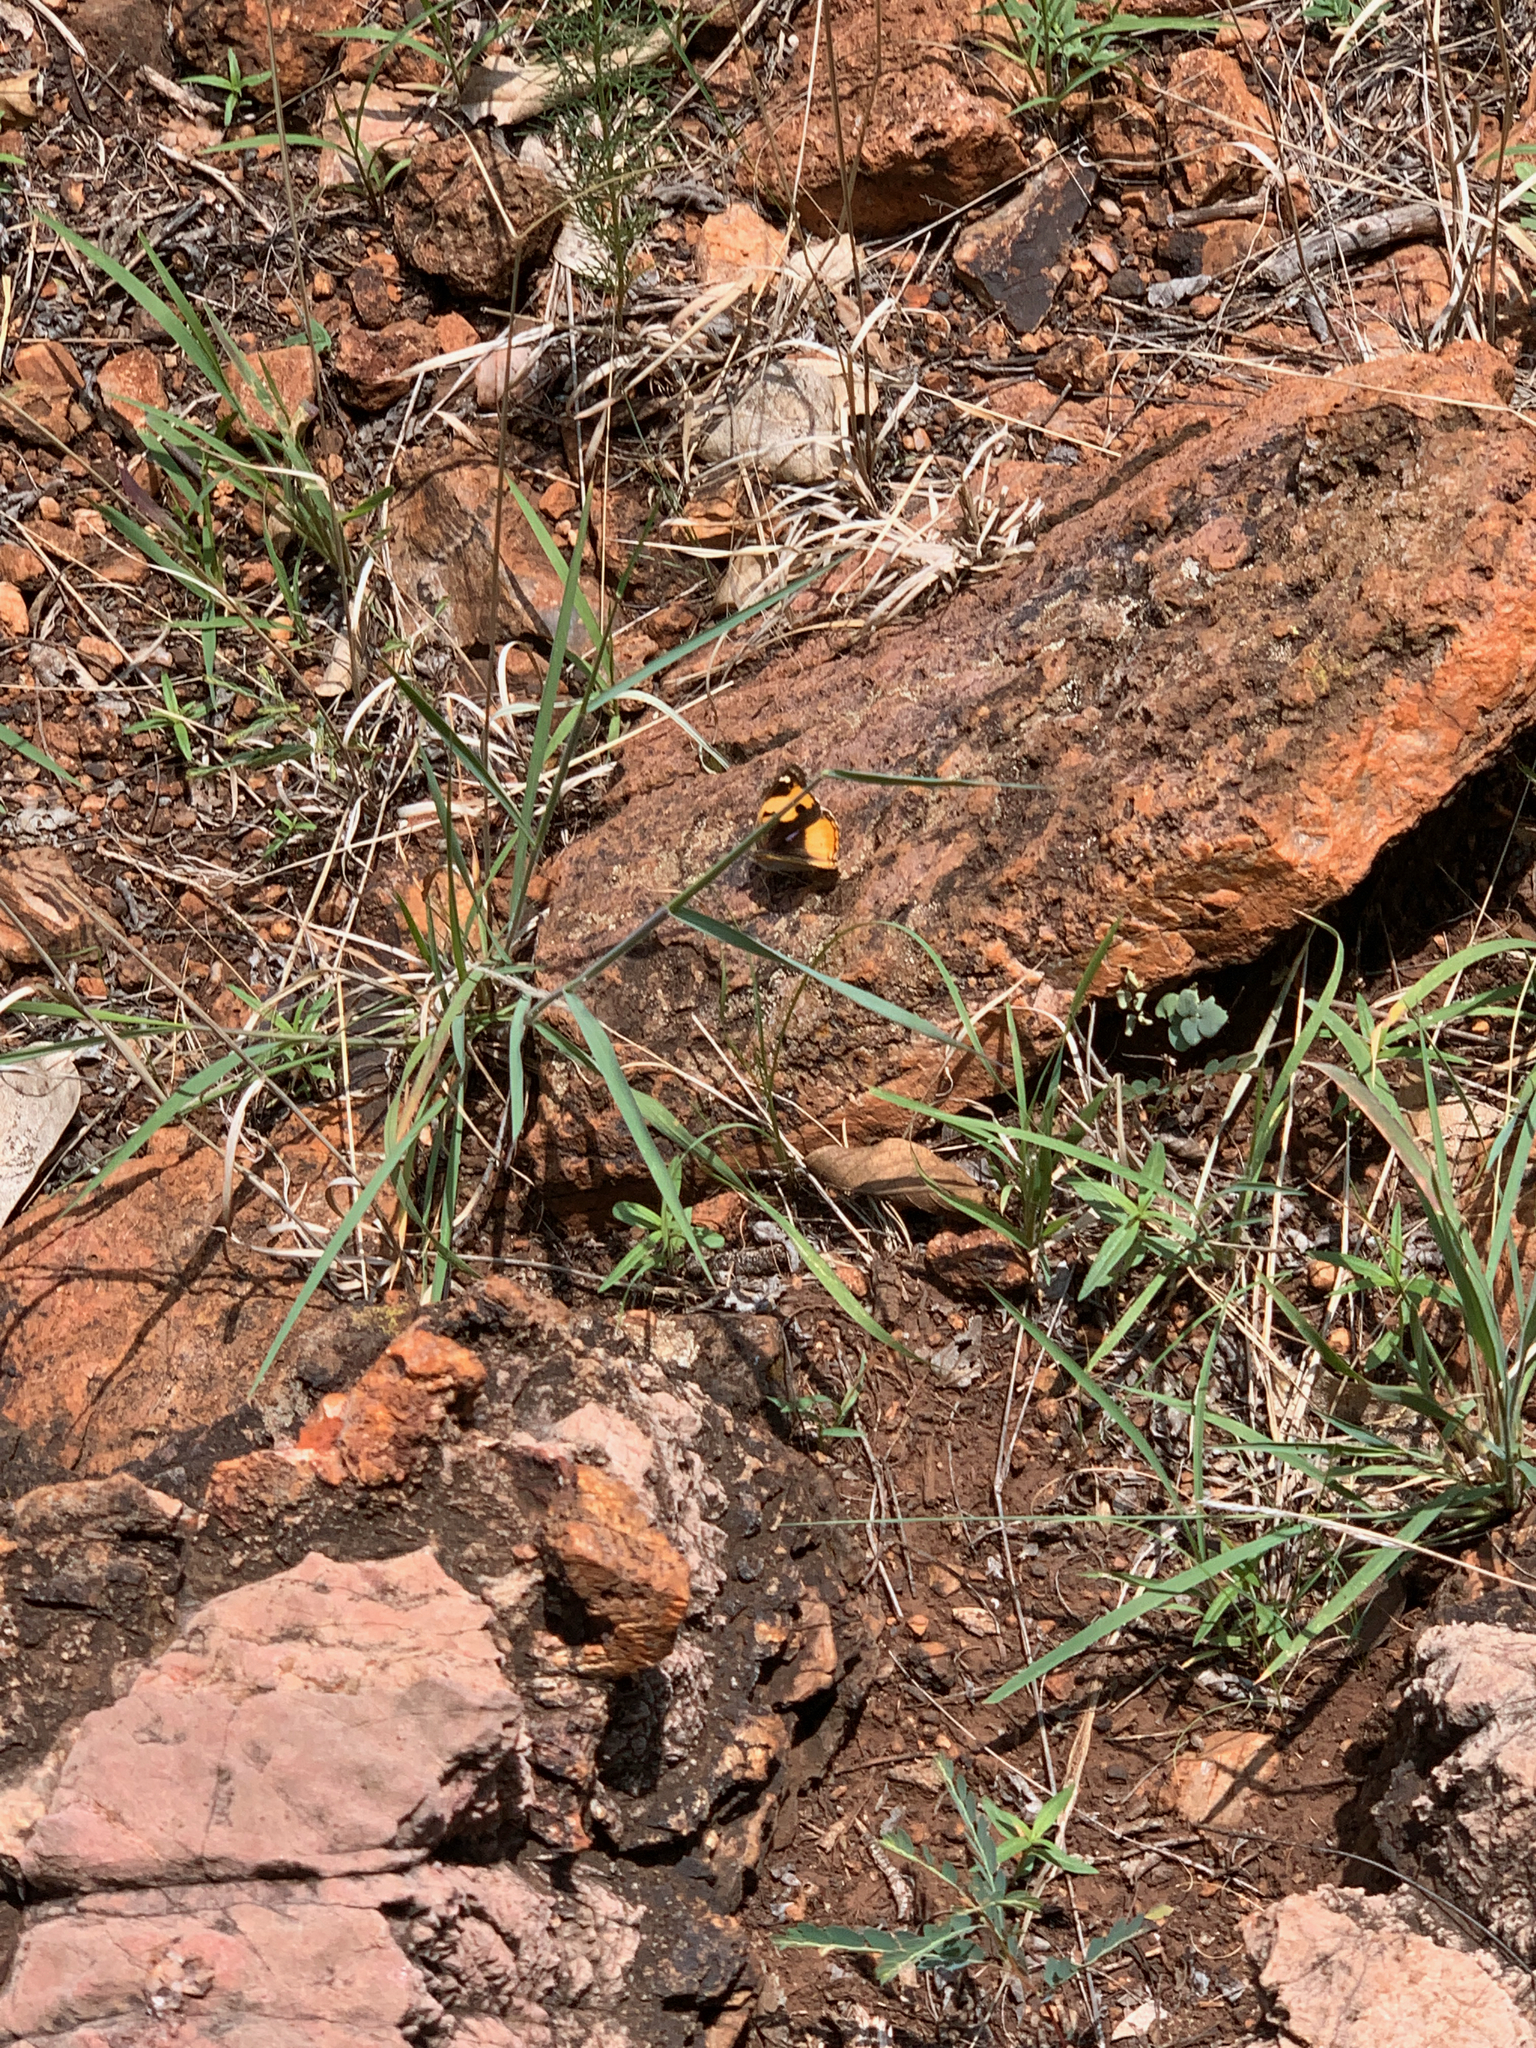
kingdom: Animalia
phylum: Arthropoda
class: Insecta
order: Lepidoptera
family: Nymphalidae
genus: Junonia
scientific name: Junonia hierta
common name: Yellow pansy
